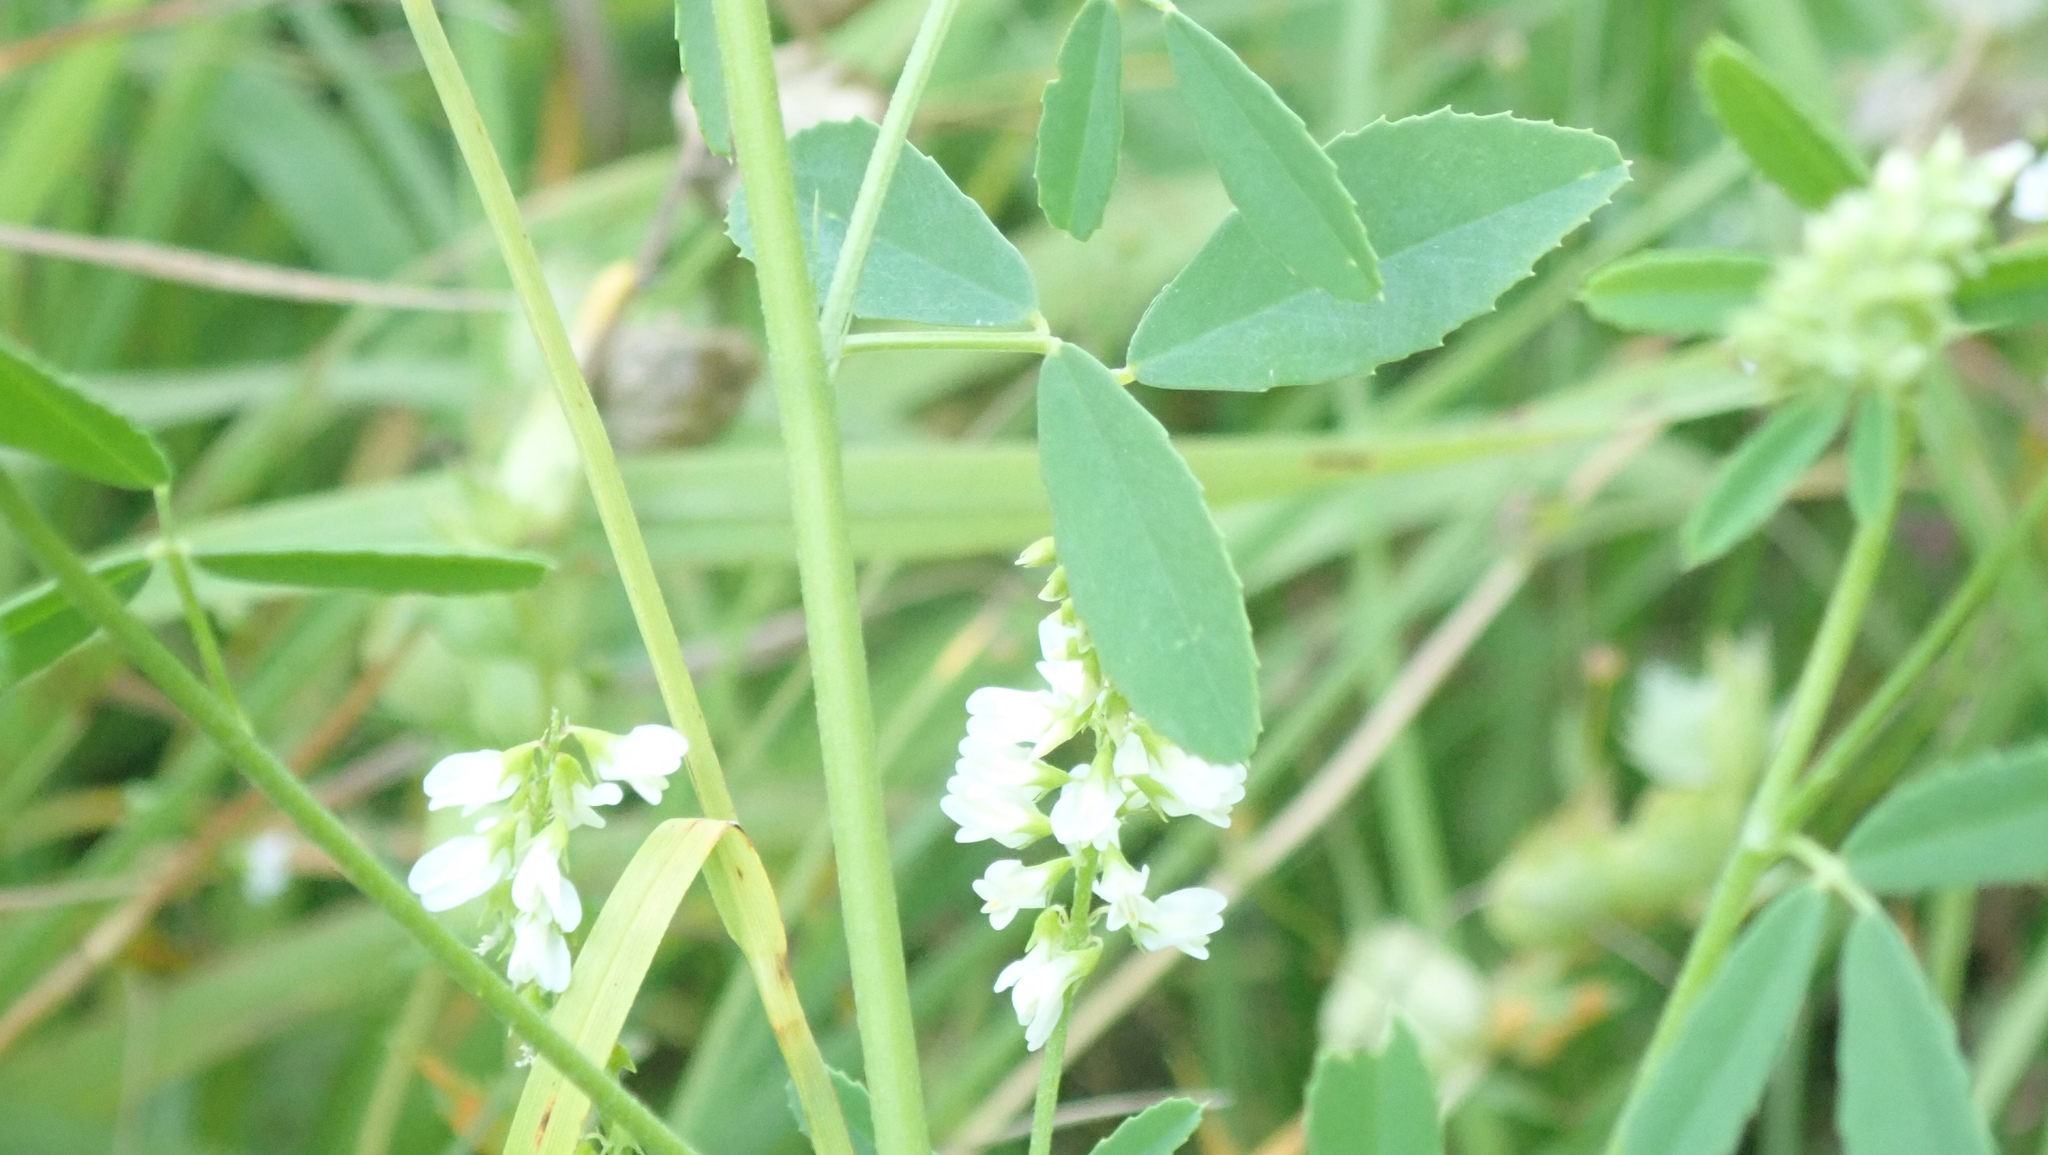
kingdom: Plantae
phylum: Tracheophyta
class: Magnoliopsida
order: Fabales
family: Fabaceae
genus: Melilotus
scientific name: Melilotus albus
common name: White melilot
